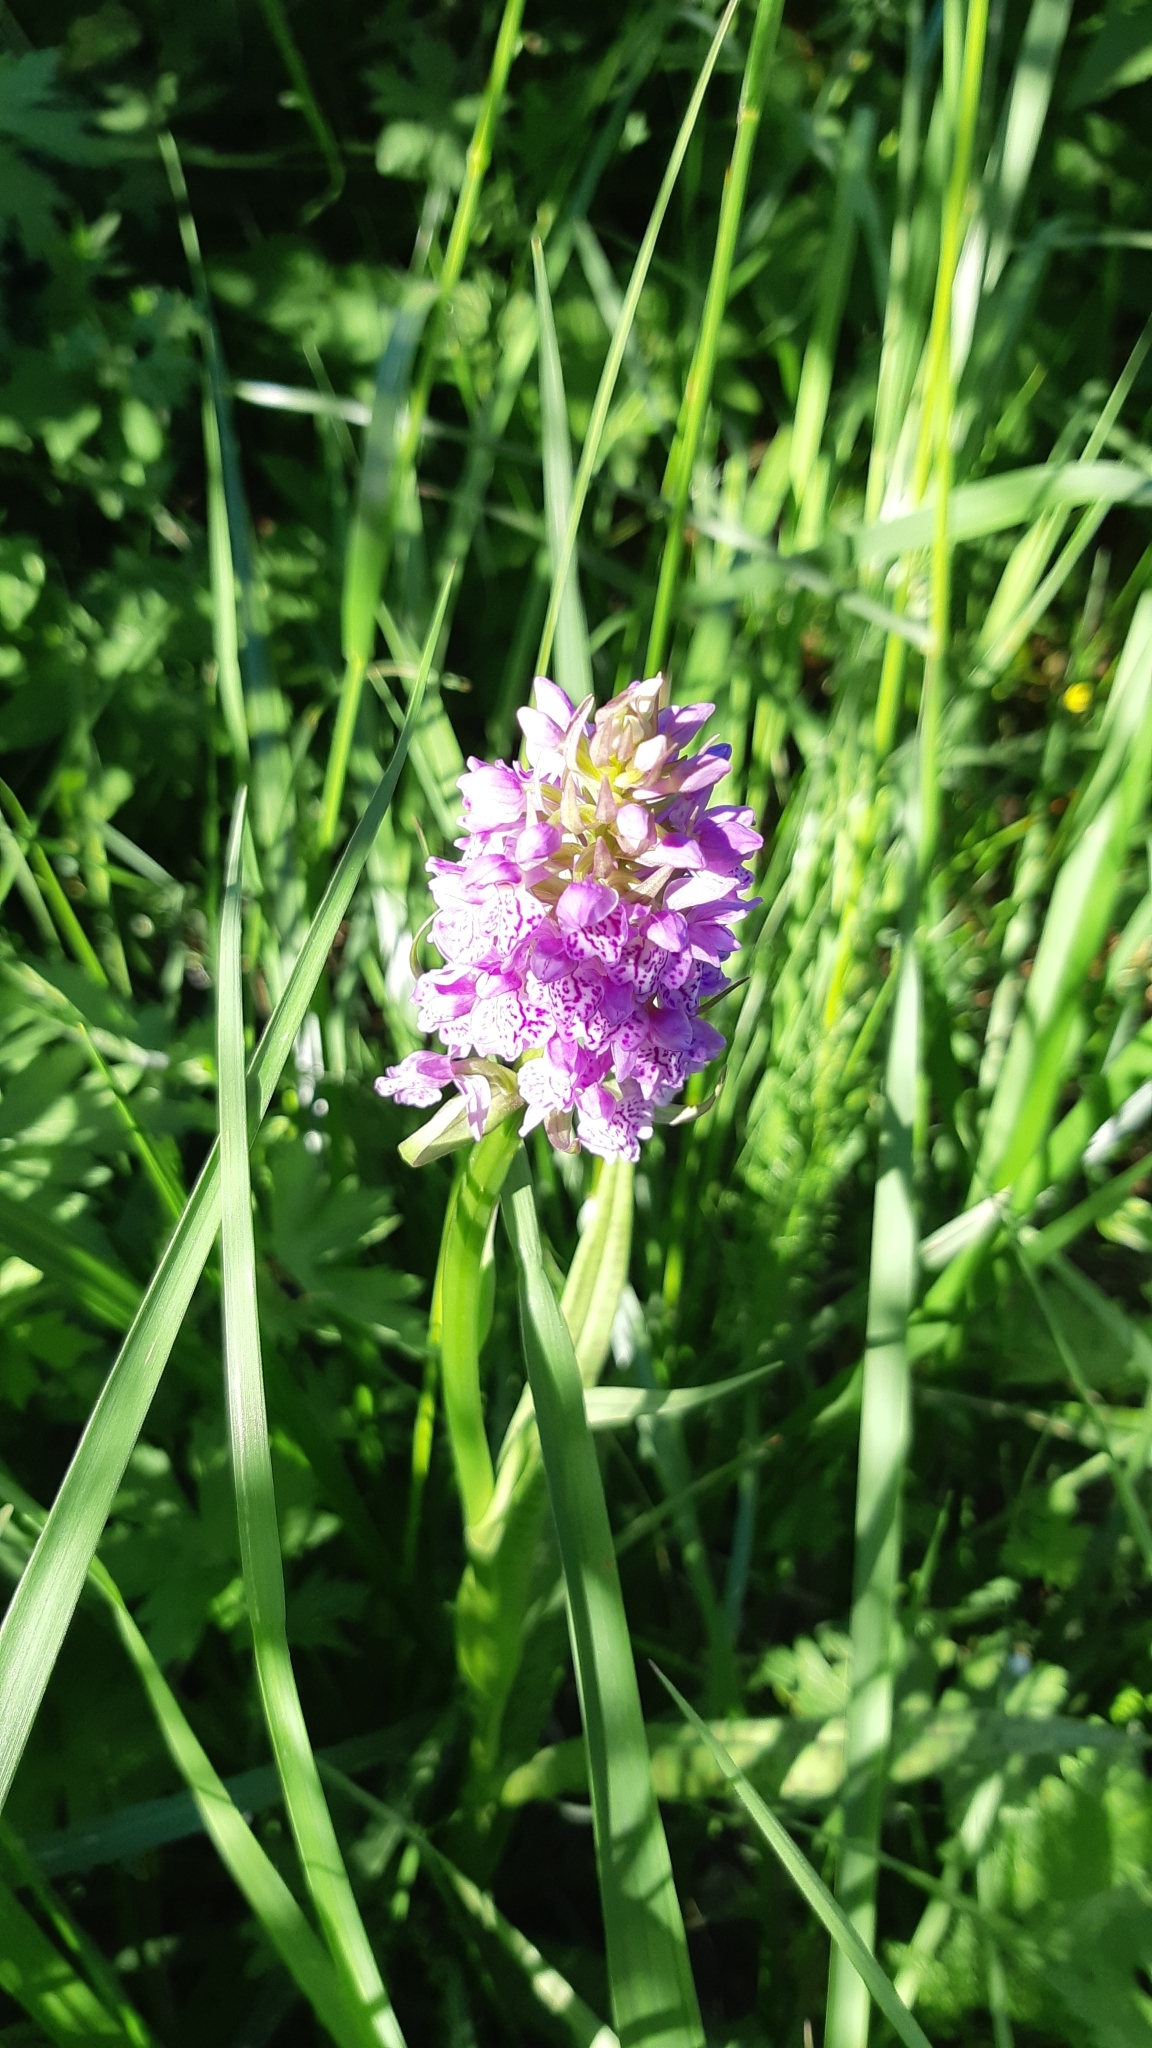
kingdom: Plantae
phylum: Tracheophyta
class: Liliopsida
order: Asparagales
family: Orchidaceae
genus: Dactylorhiza
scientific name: Dactylorhiza majalis
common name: Marsh orchid
